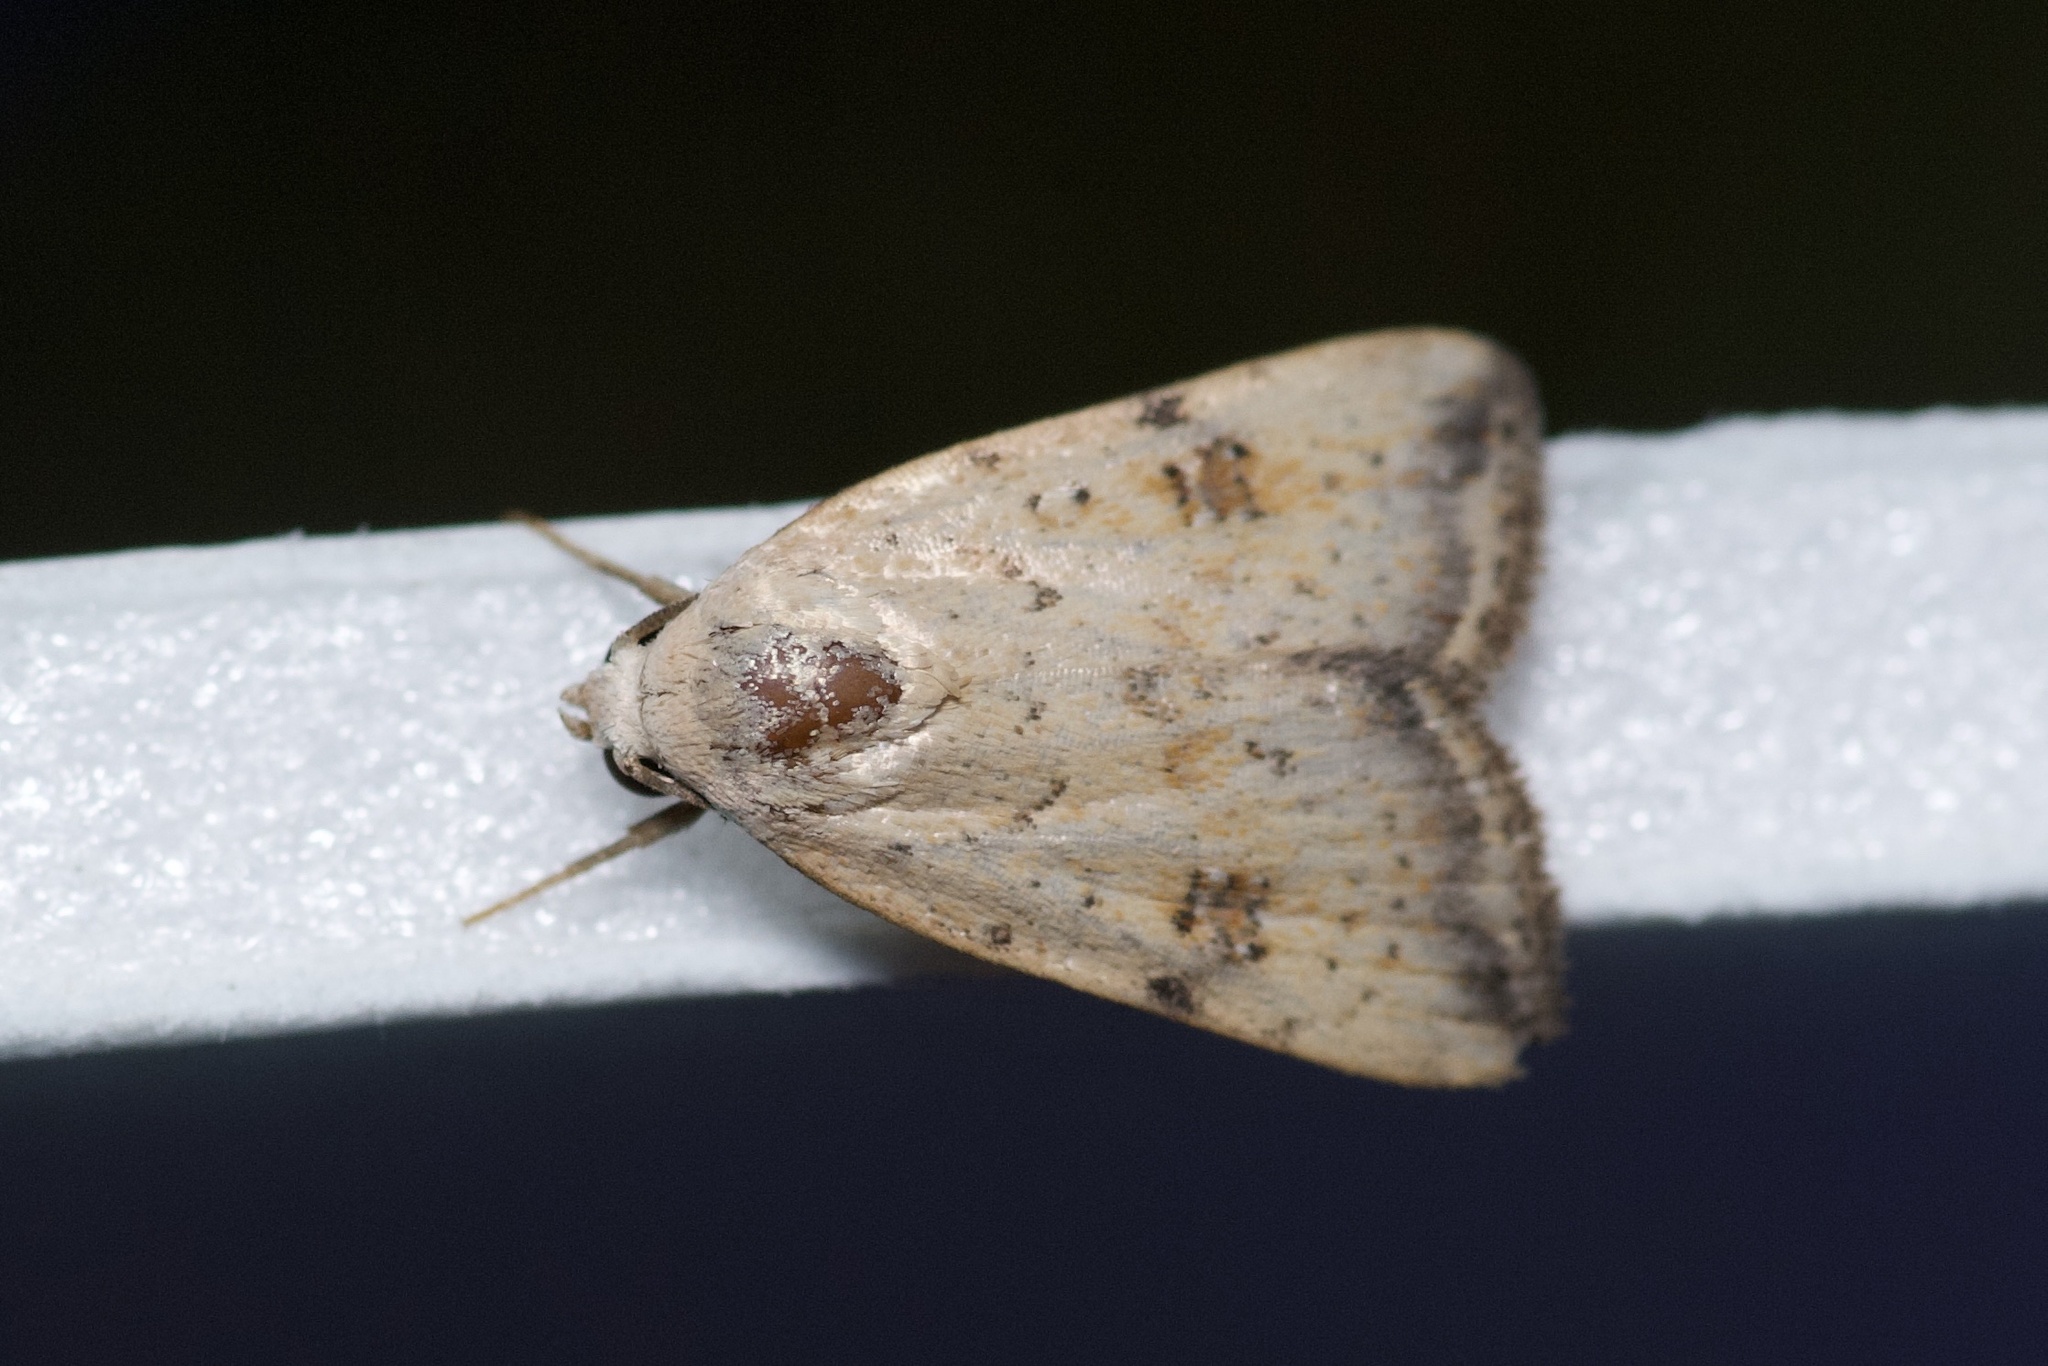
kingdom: Animalia
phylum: Arthropoda
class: Insecta
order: Lepidoptera
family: Noctuidae
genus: Micrathetis
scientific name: Micrathetis triplex
